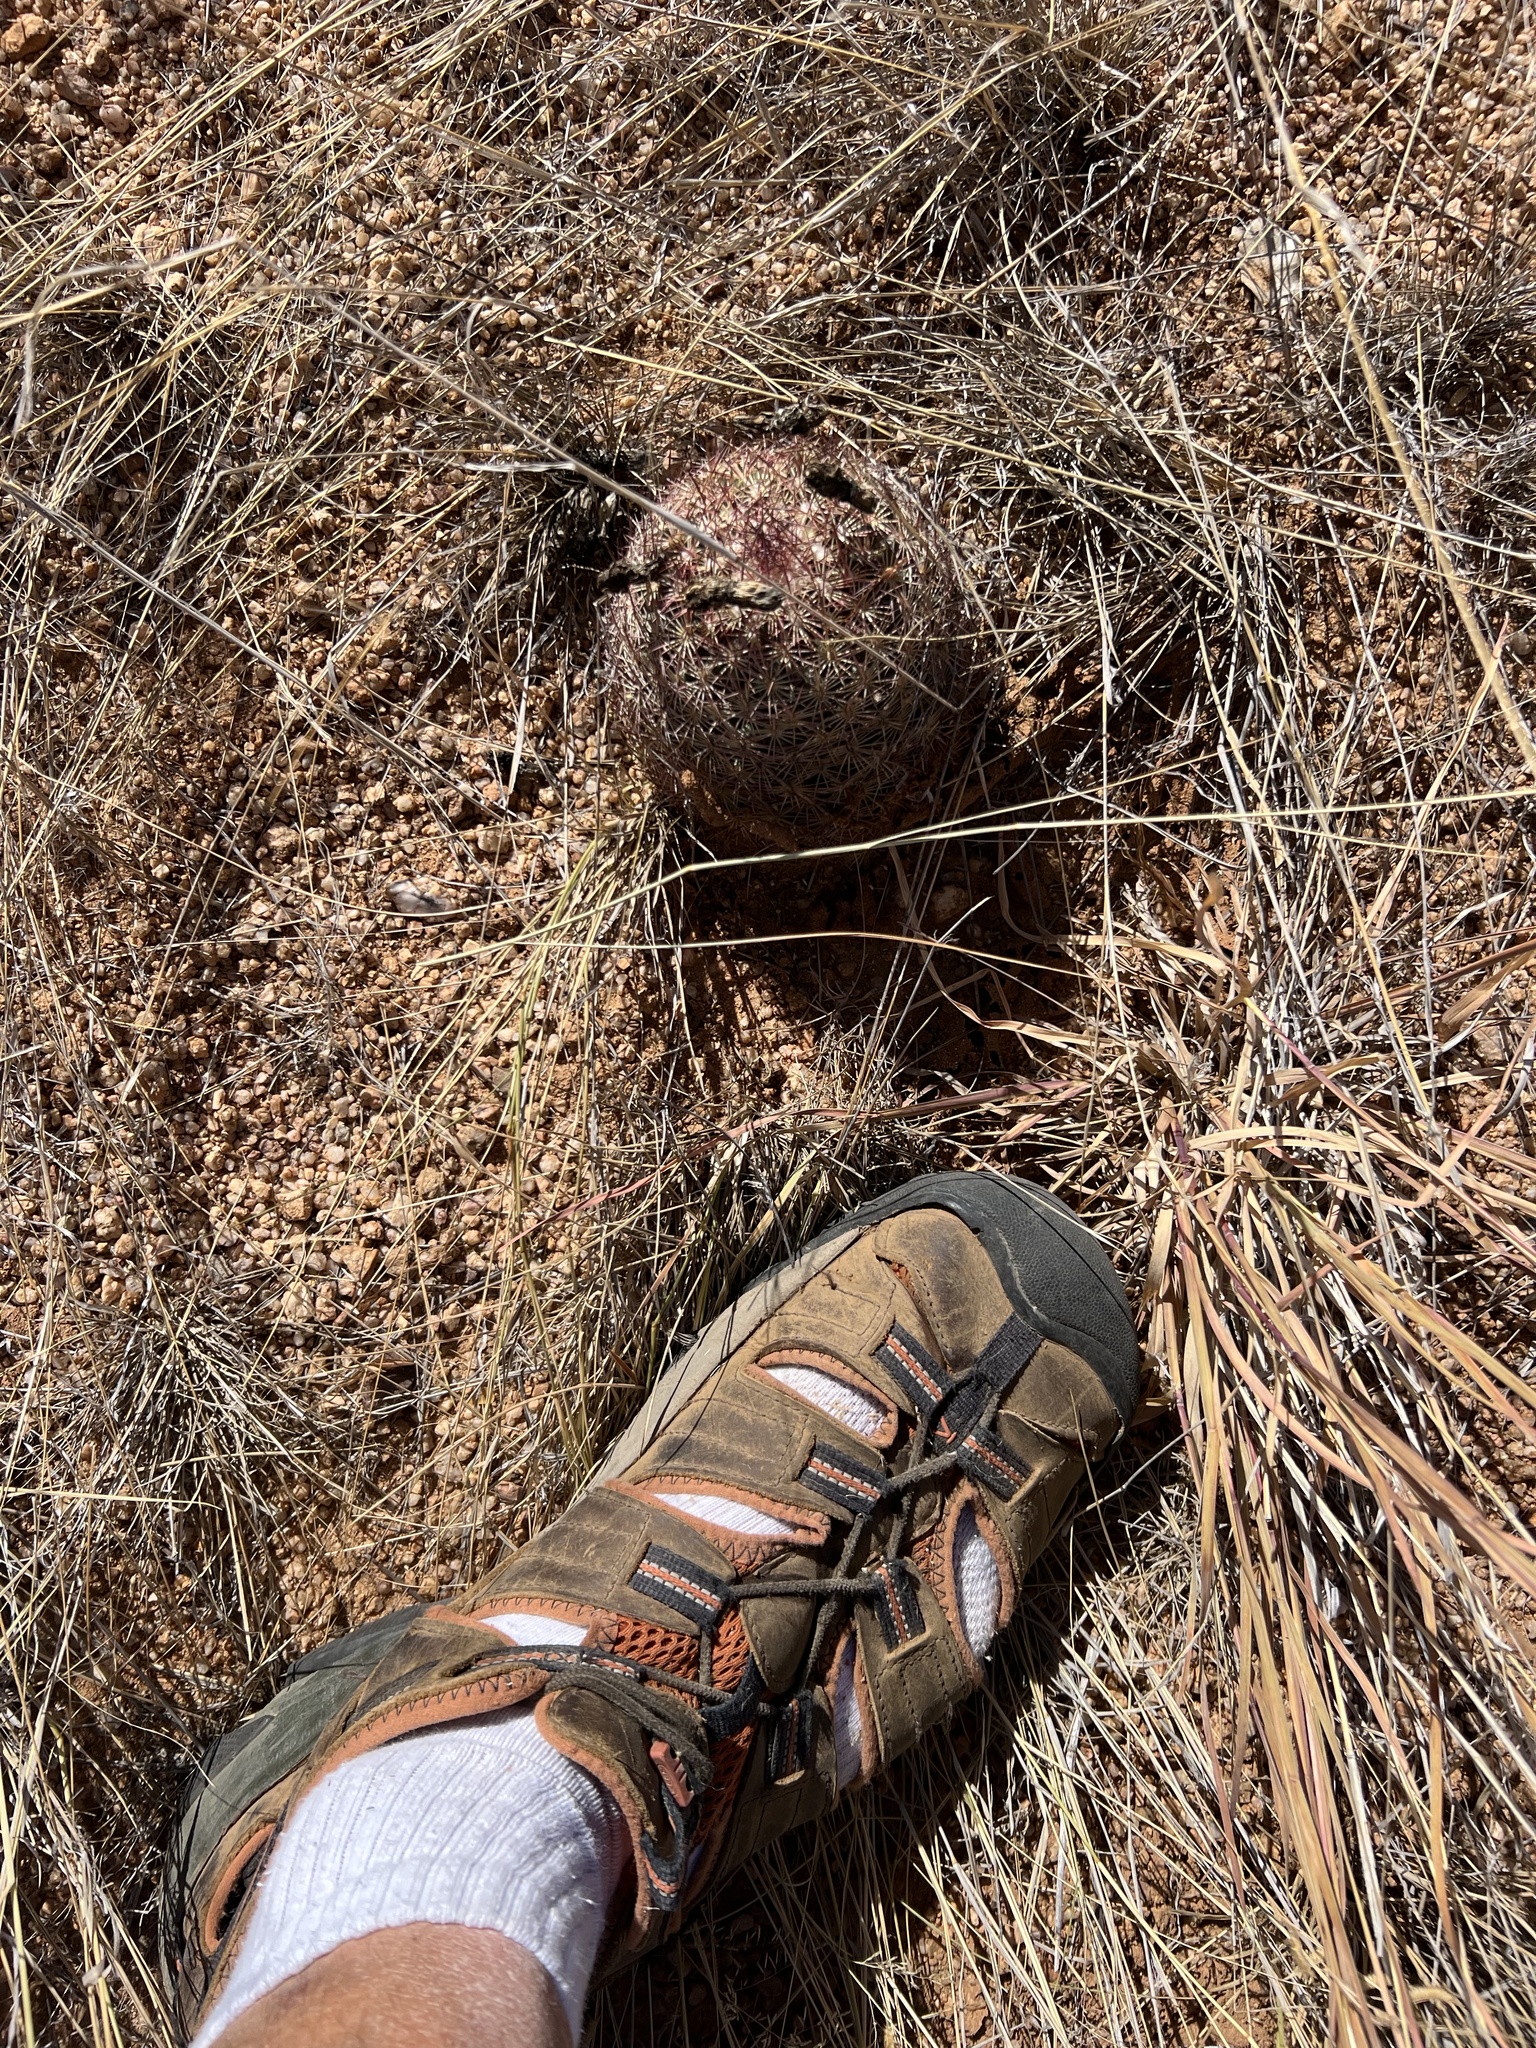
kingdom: Plantae
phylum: Tracheophyta
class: Magnoliopsida
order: Caryophyllales
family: Cactaceae
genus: Sclerocactus
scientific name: Sclerocactus johnsonii
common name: Eight-spine fishhook cactus
